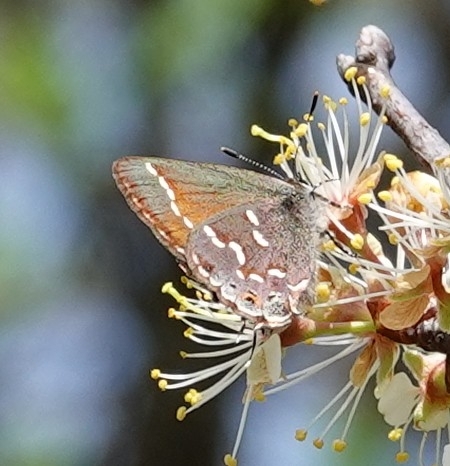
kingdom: Animalia
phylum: Arthropoda
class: Insecta
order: Lepidoptera
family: Lycaenidae
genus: Mitoura
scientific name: Mitoura gryneus
